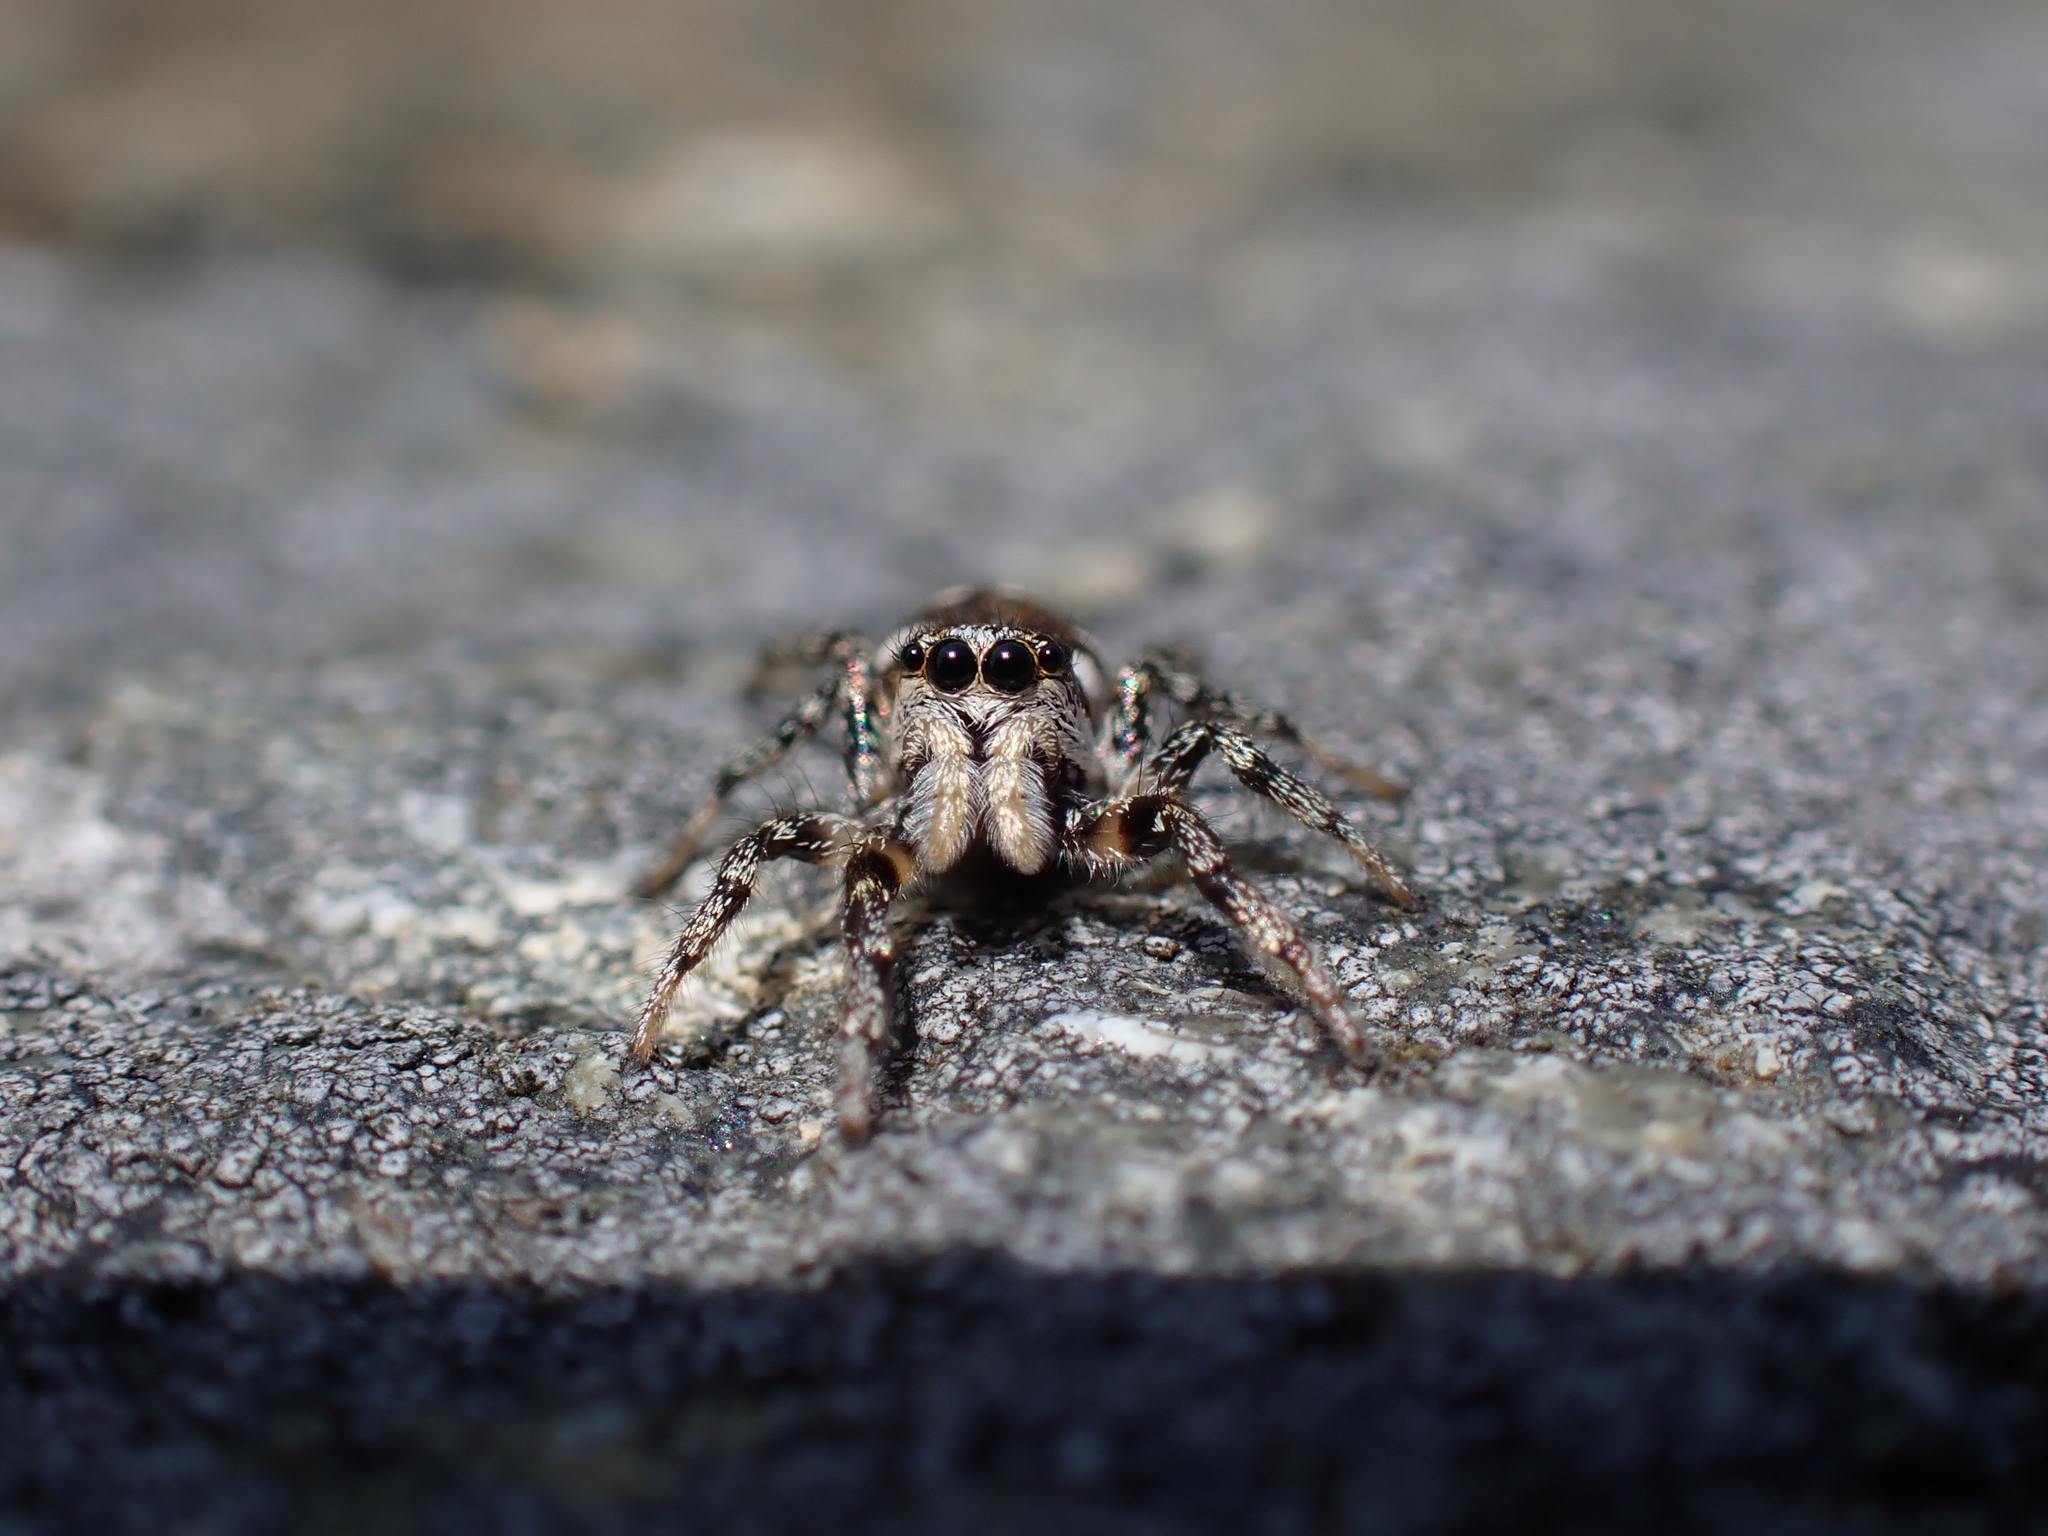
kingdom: Animalia
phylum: Arthropoda
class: Arachnida
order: Araneae
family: Salticidae
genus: Salticus
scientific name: Salticus scenicus
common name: Zebra jumper
